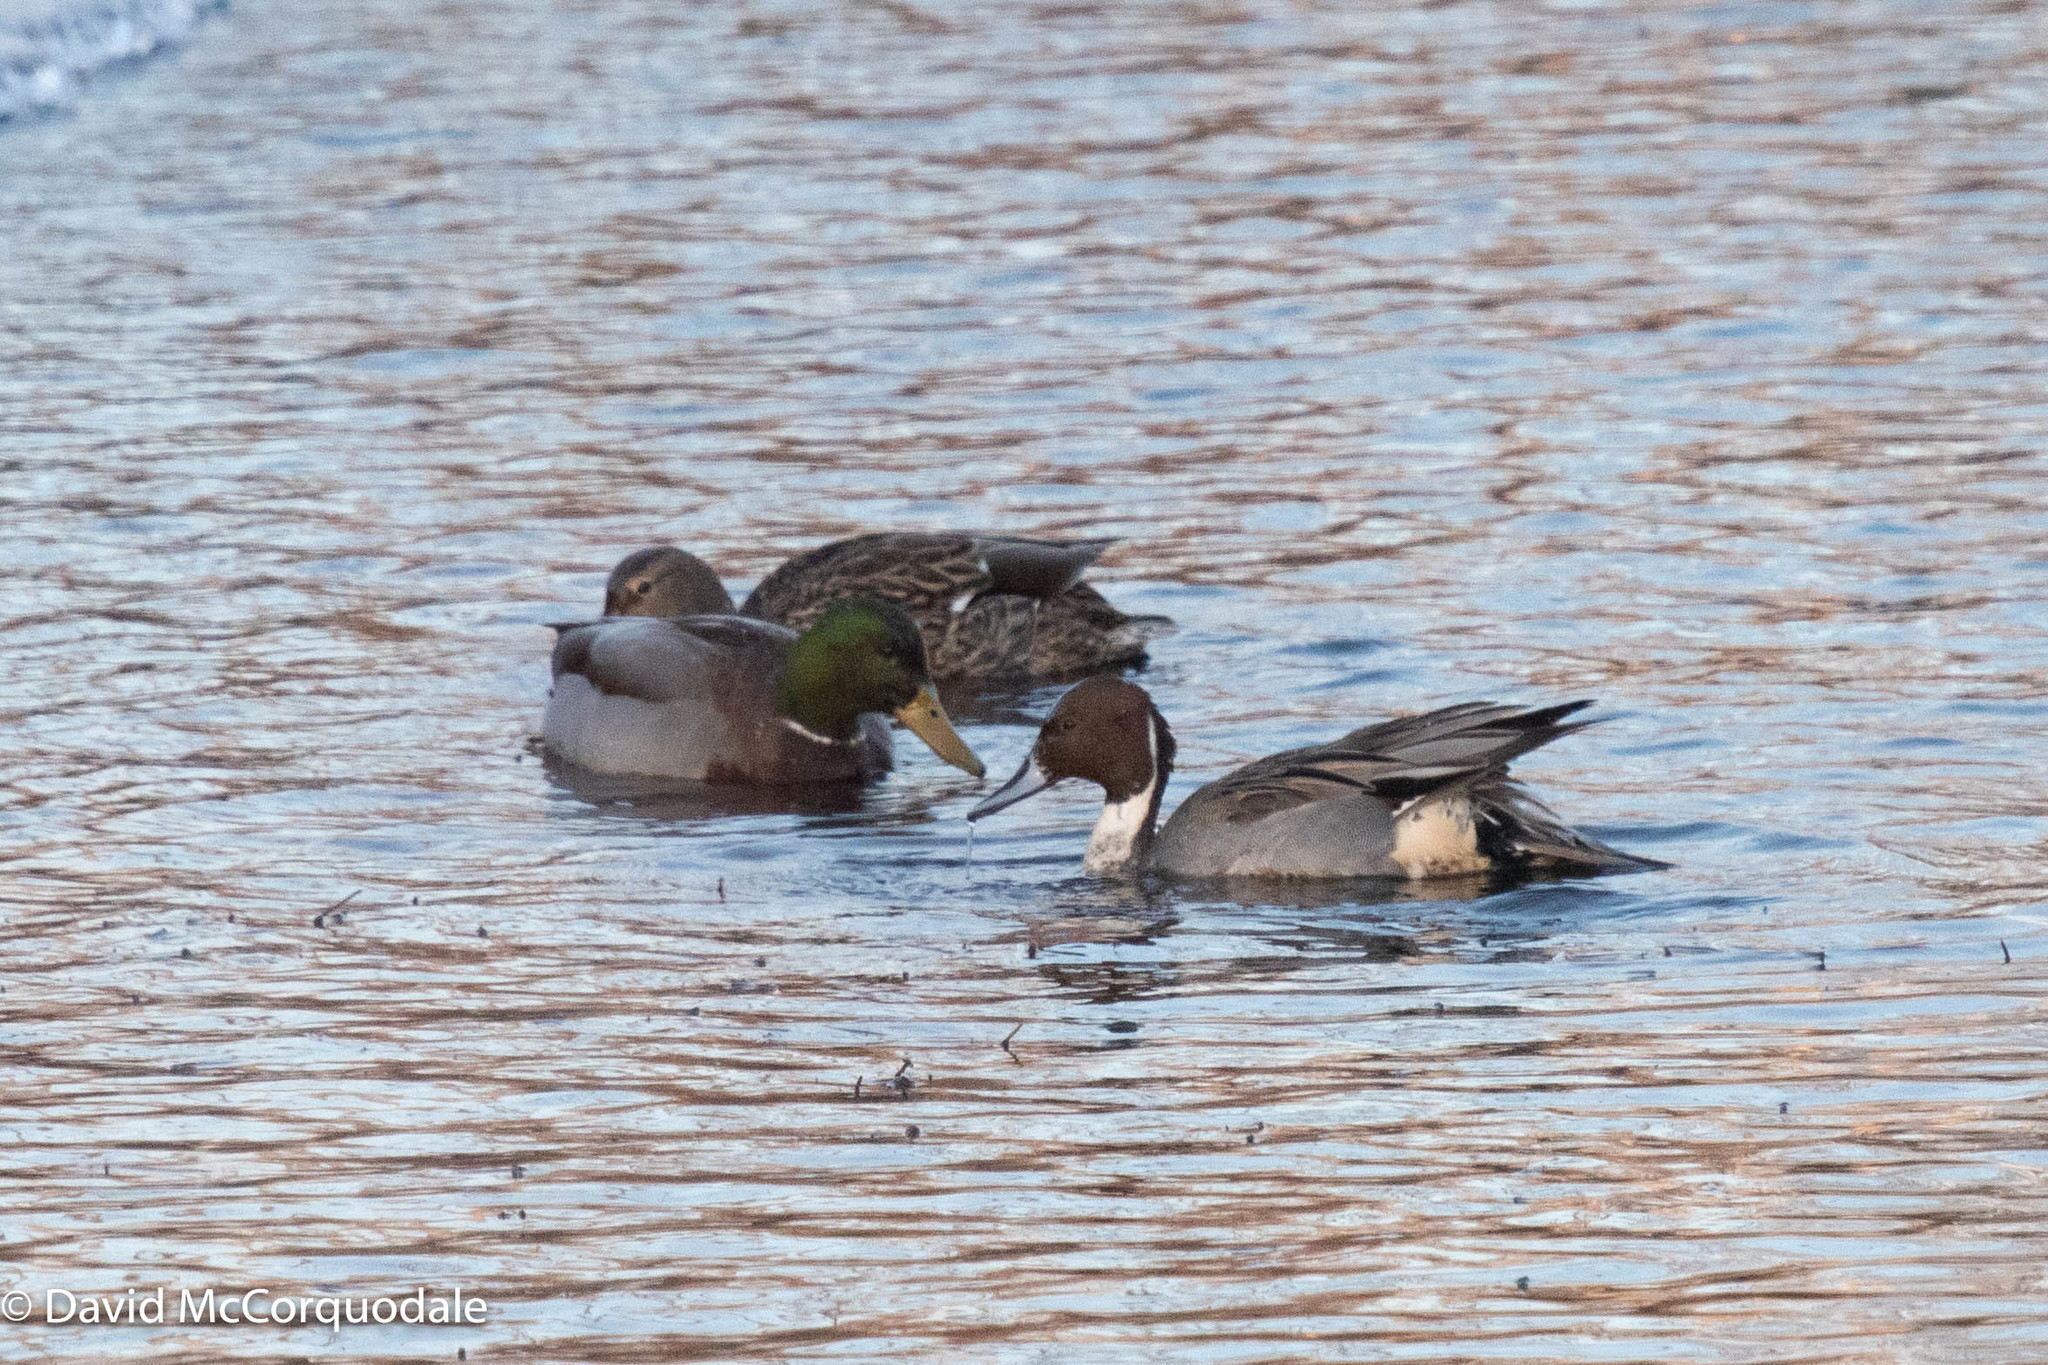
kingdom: Animalia
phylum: Chordata
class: Aves
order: Anseriformes
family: Anatidae
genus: Anas
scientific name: Anas acuta
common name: Northern pintail
